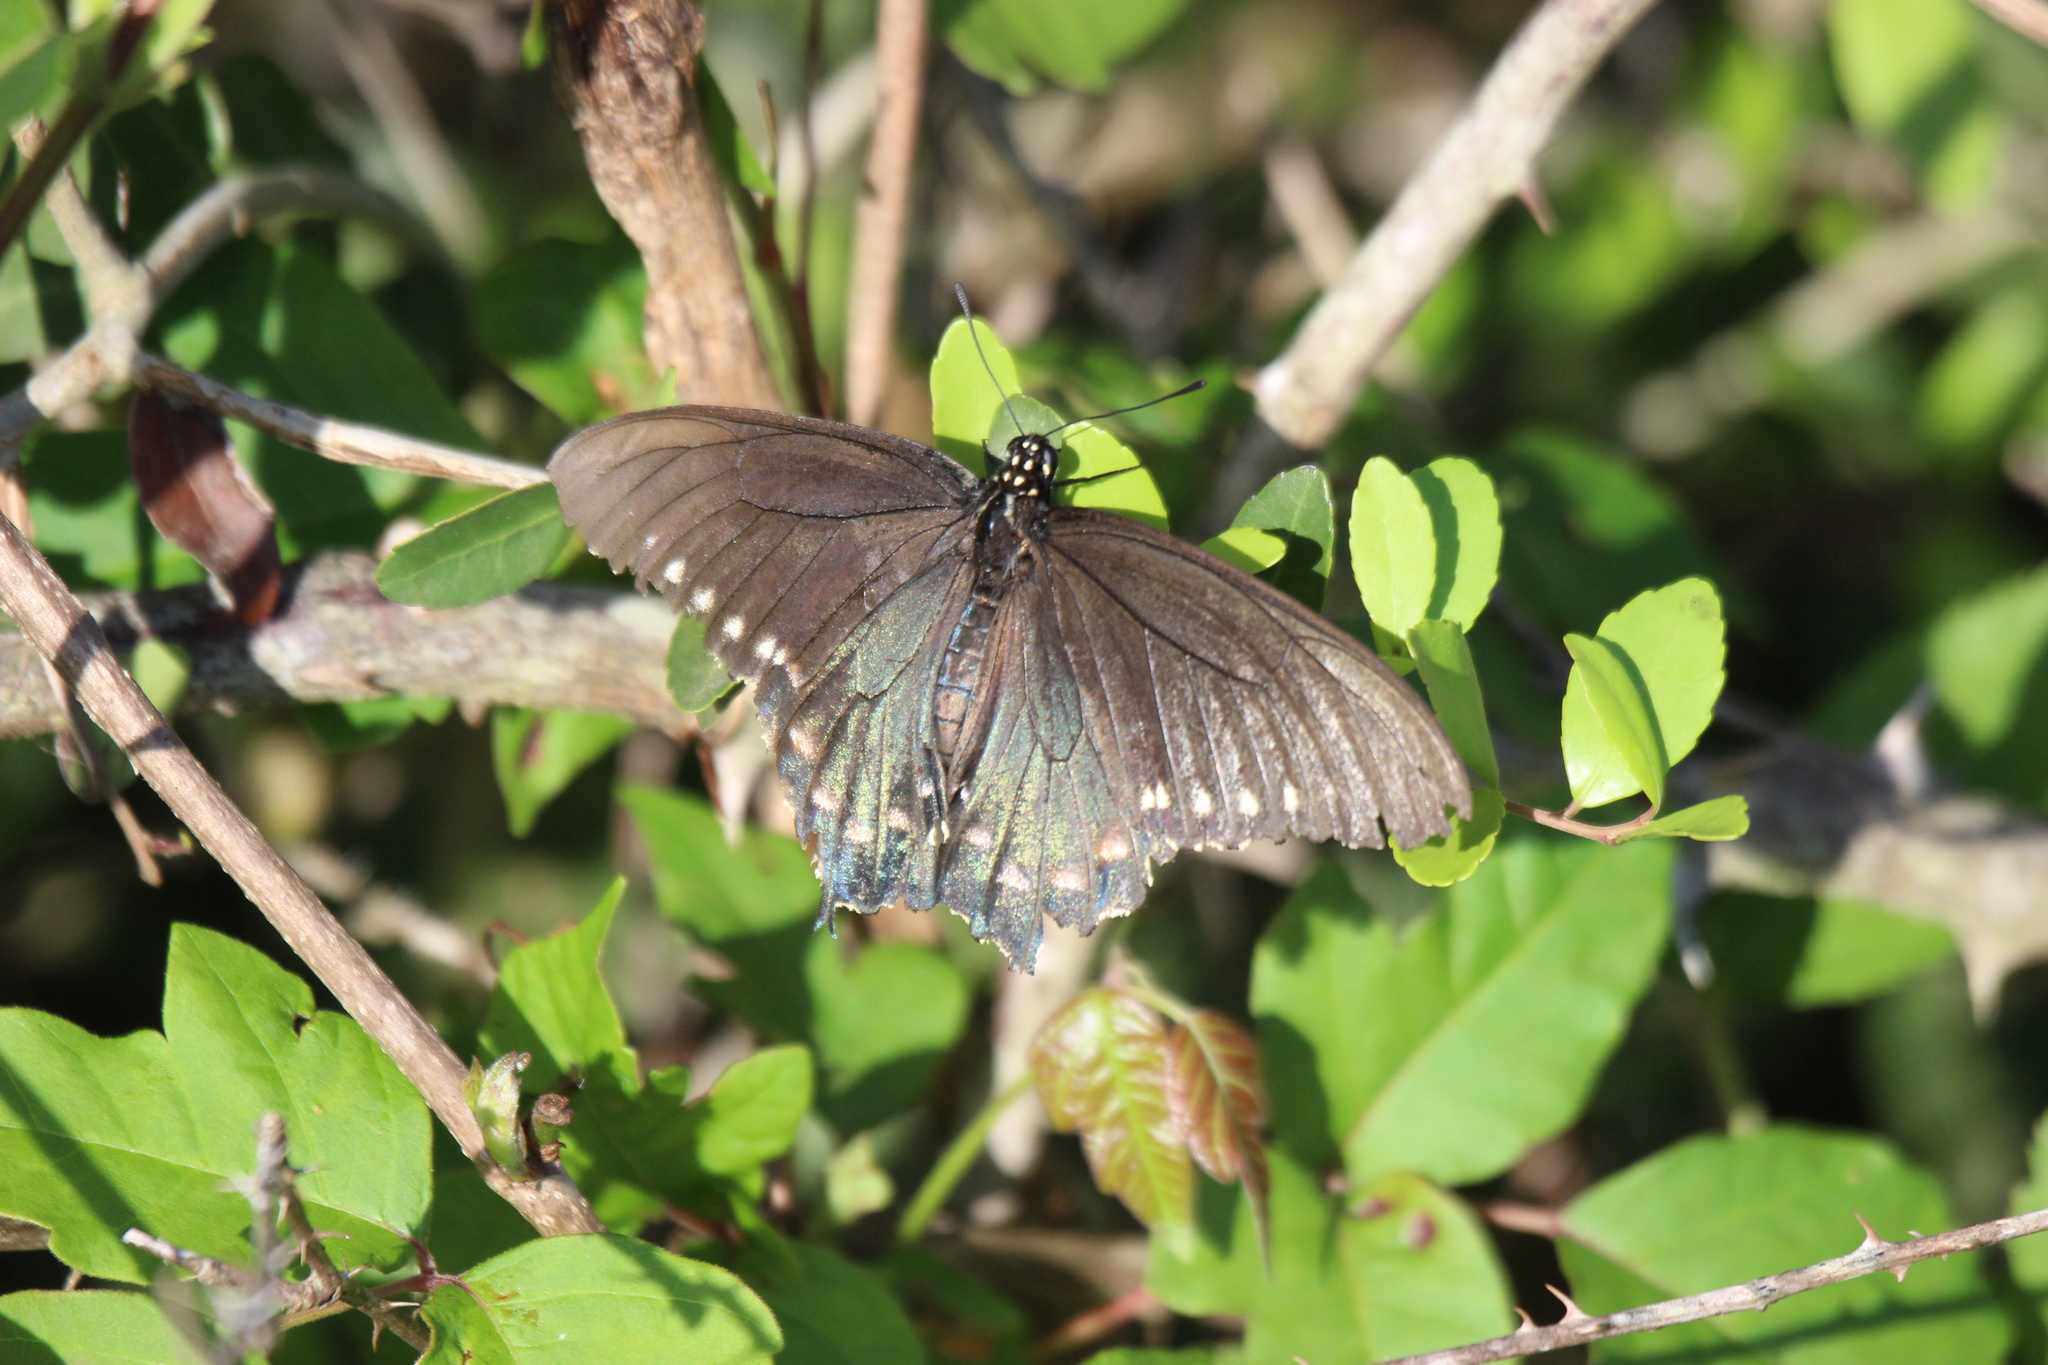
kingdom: Animalia
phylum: Arthropoda
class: Insecta
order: Lepidoptera
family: Papilionidae
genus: Battus
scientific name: Battus philenor
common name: Pipevine swallowtail
